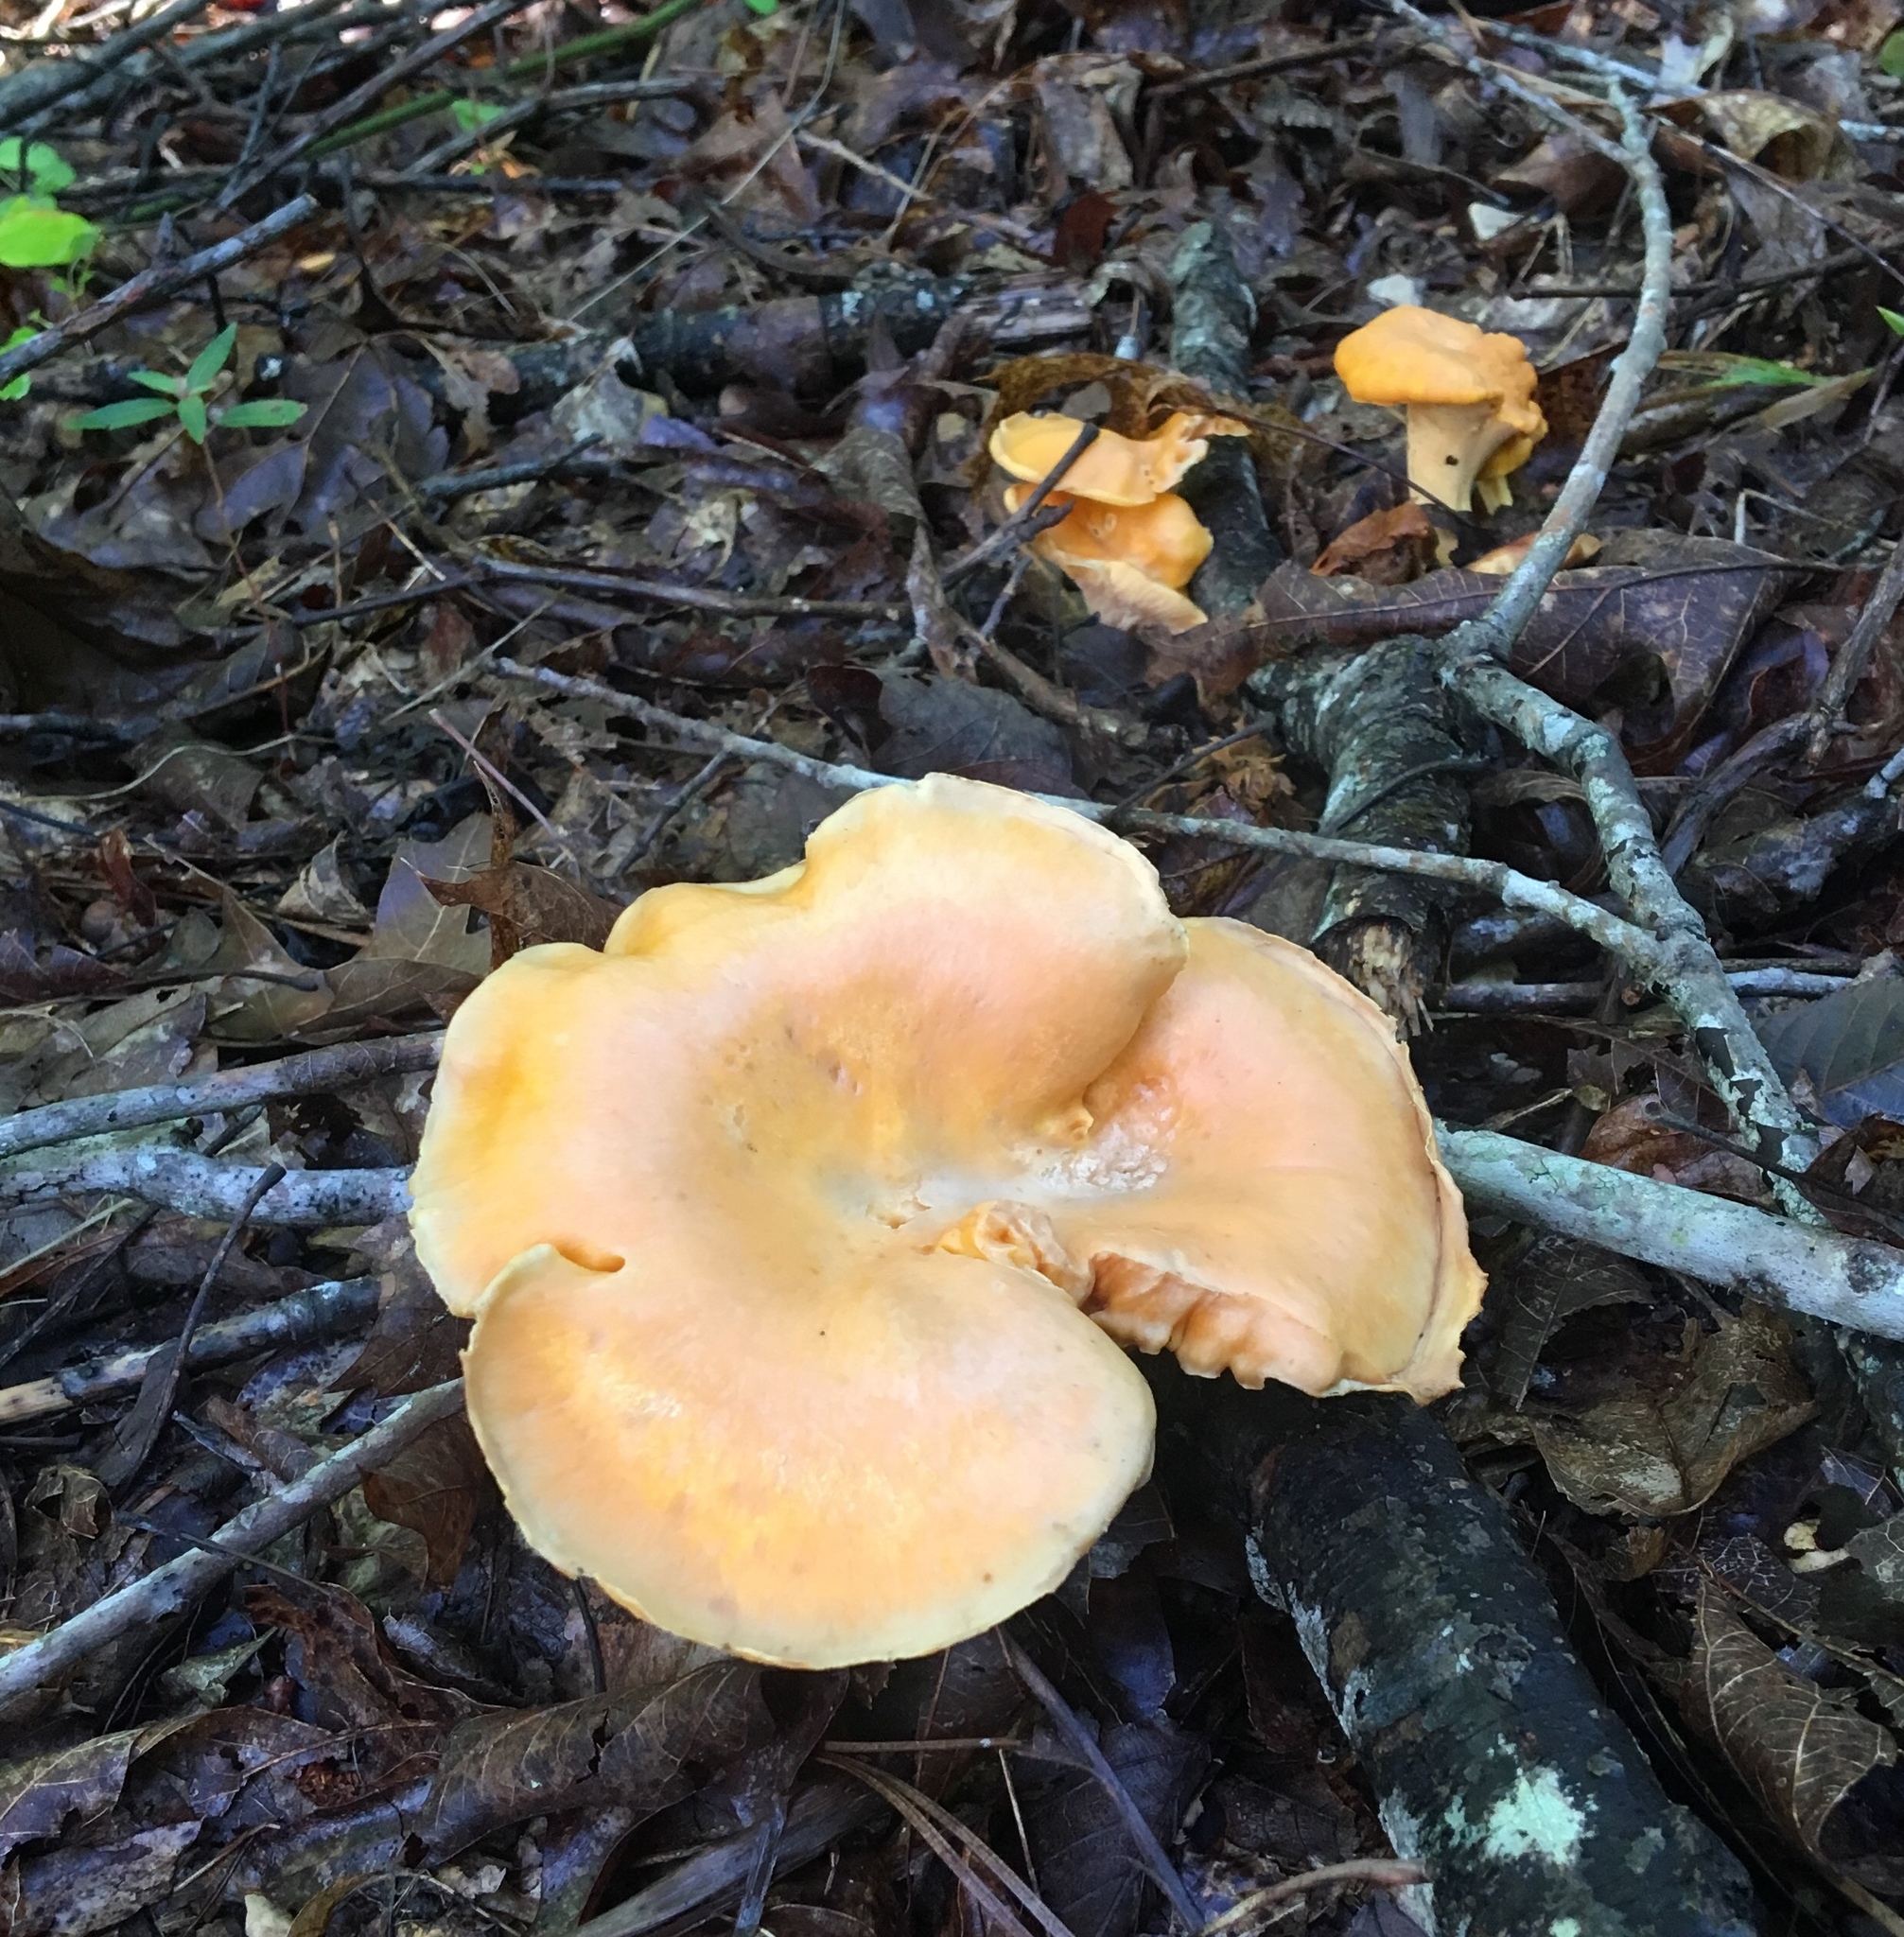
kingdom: Fungi
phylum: Basidiomycota
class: Agaricomycetes
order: Cantharellales
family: Hydnaceae
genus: Cantharellus
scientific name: Cantharellus lateritius
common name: Smooth chanterelle
